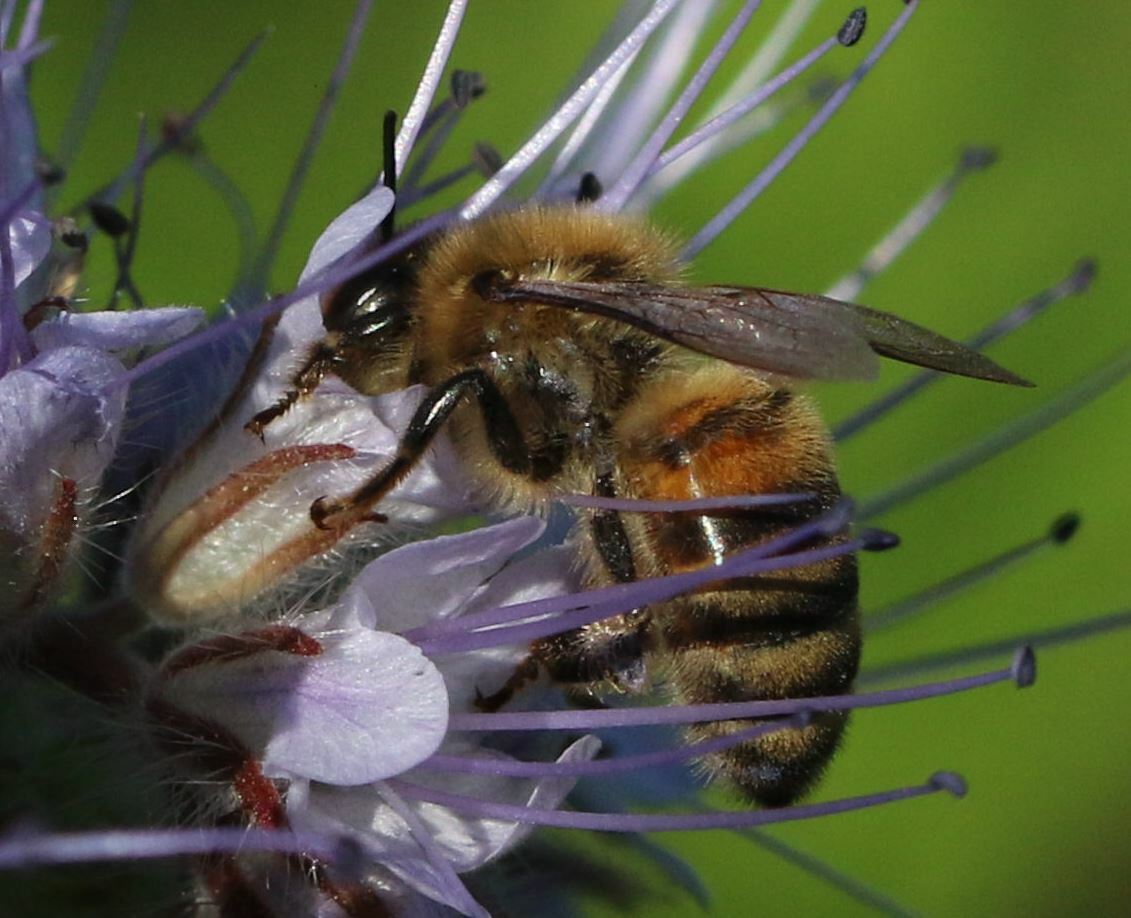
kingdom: Animalia
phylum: Arthropoda
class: Insecta
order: Hymenoptera
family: Apidae
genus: Apis
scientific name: Apis mellifera
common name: Honey bee
